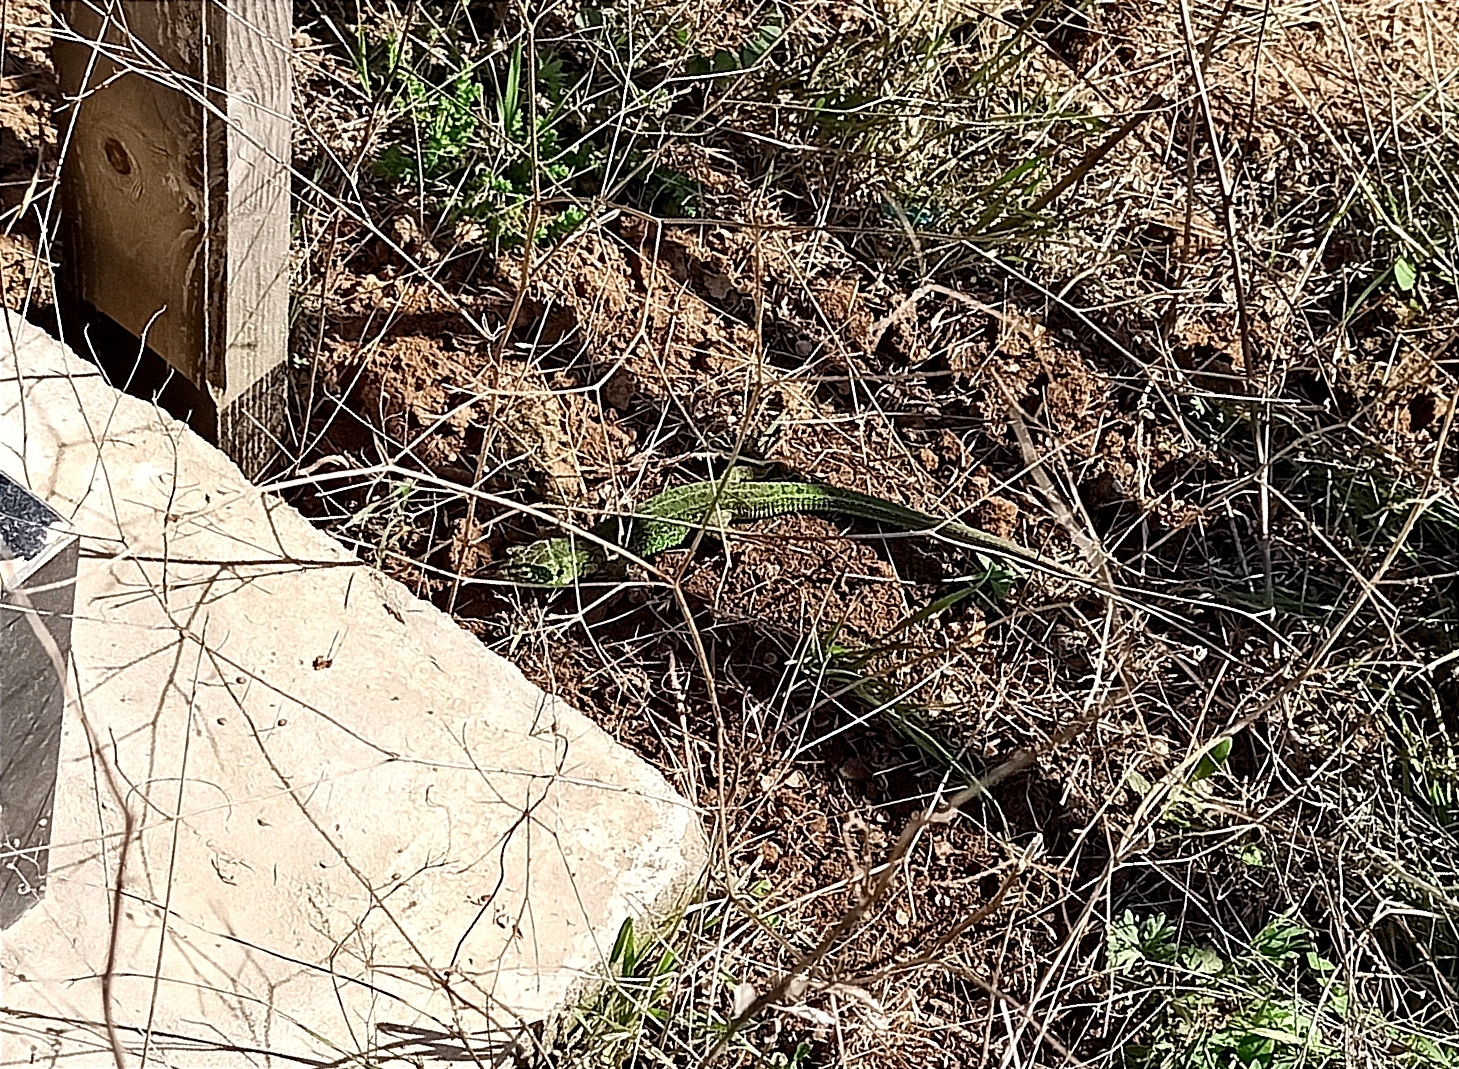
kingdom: Animalia
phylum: Chordata
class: Squamata
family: Lacertidae
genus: Lacerta
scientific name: Lacerta agilis
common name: Sand lizard
